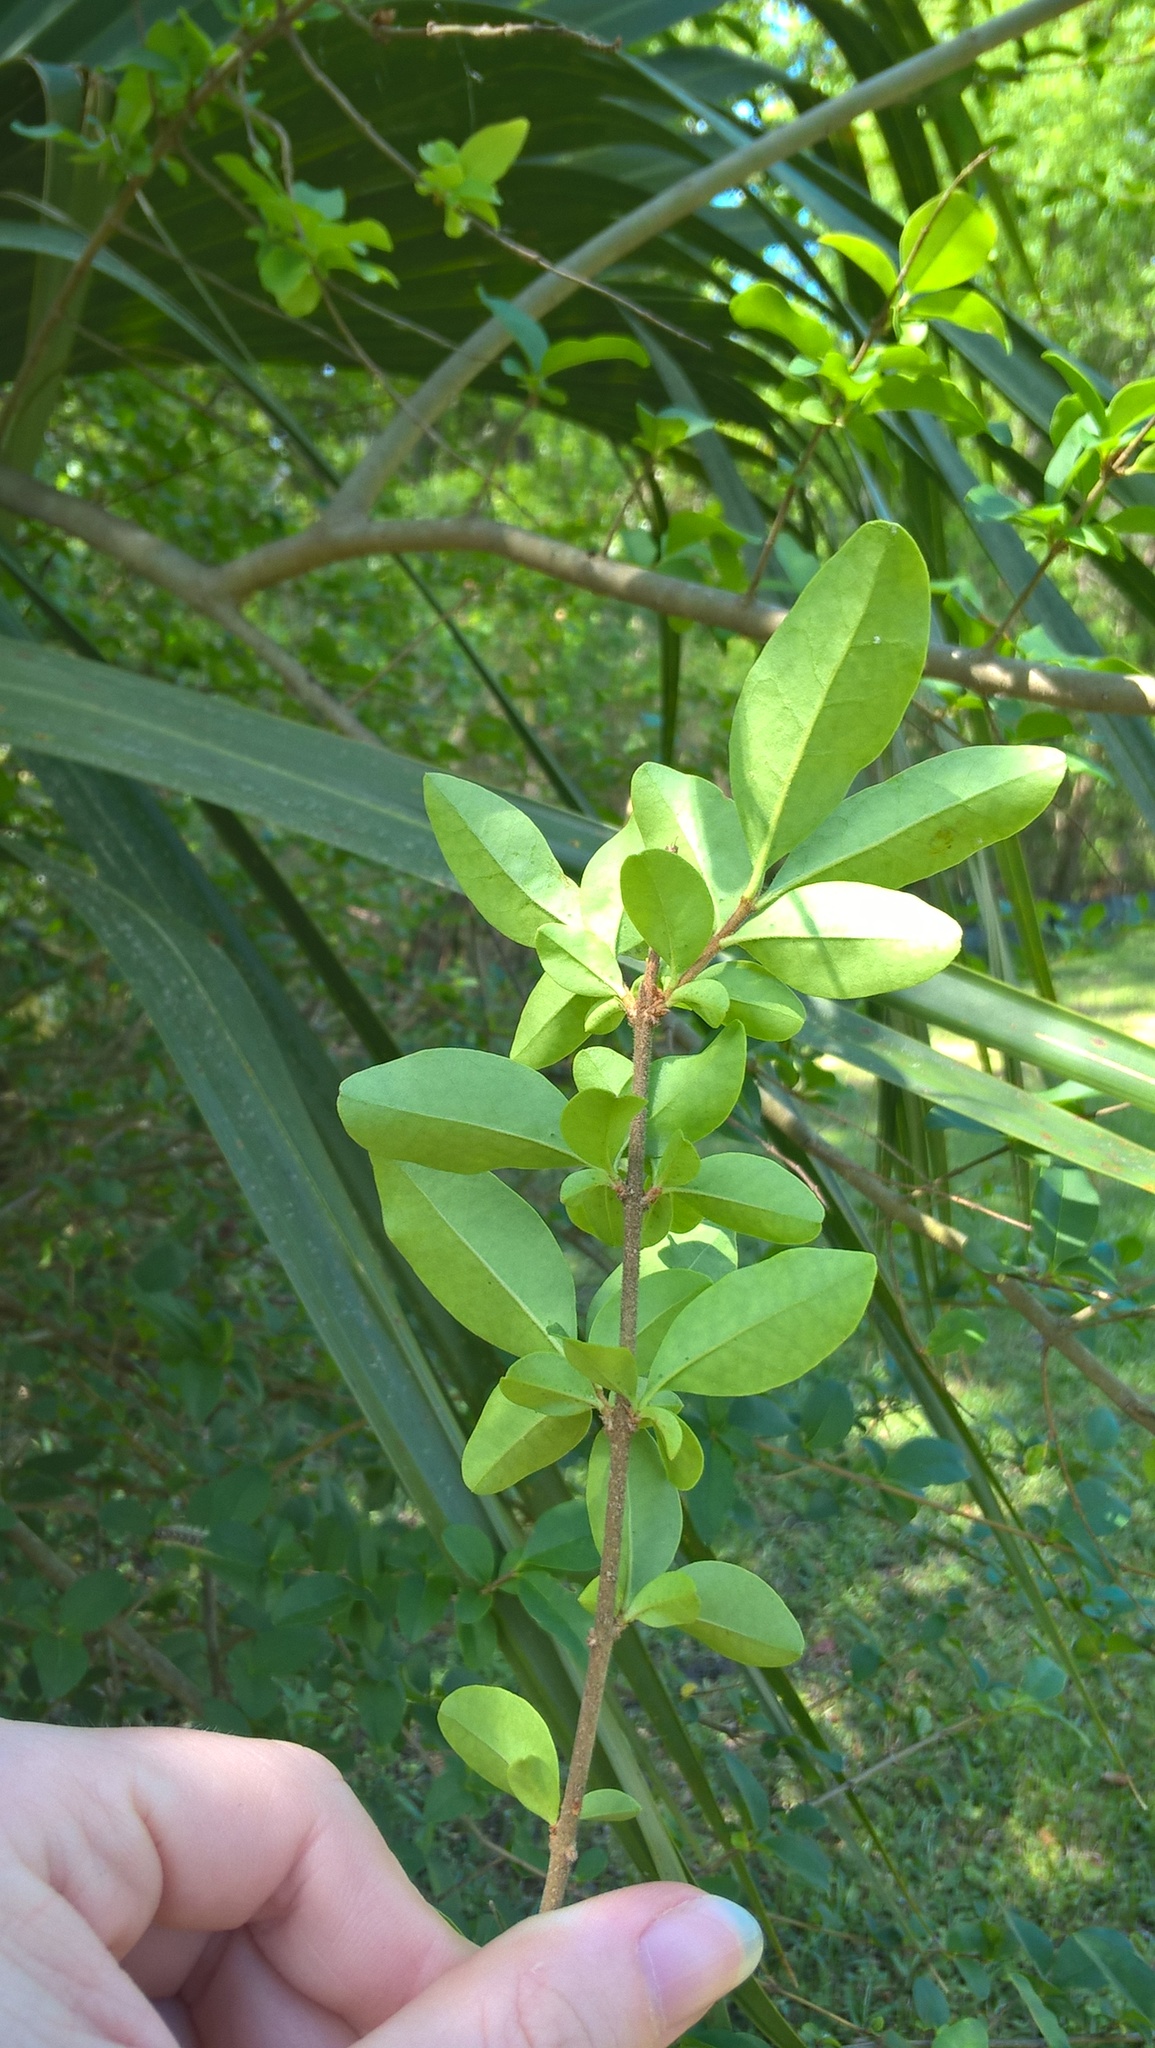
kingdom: Plantae
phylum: Tracheophyta
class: Magnoliopsida
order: Lamiales
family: Oleaceae
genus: Ligustrum
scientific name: Ligustrum sinense
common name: Chinese privet
